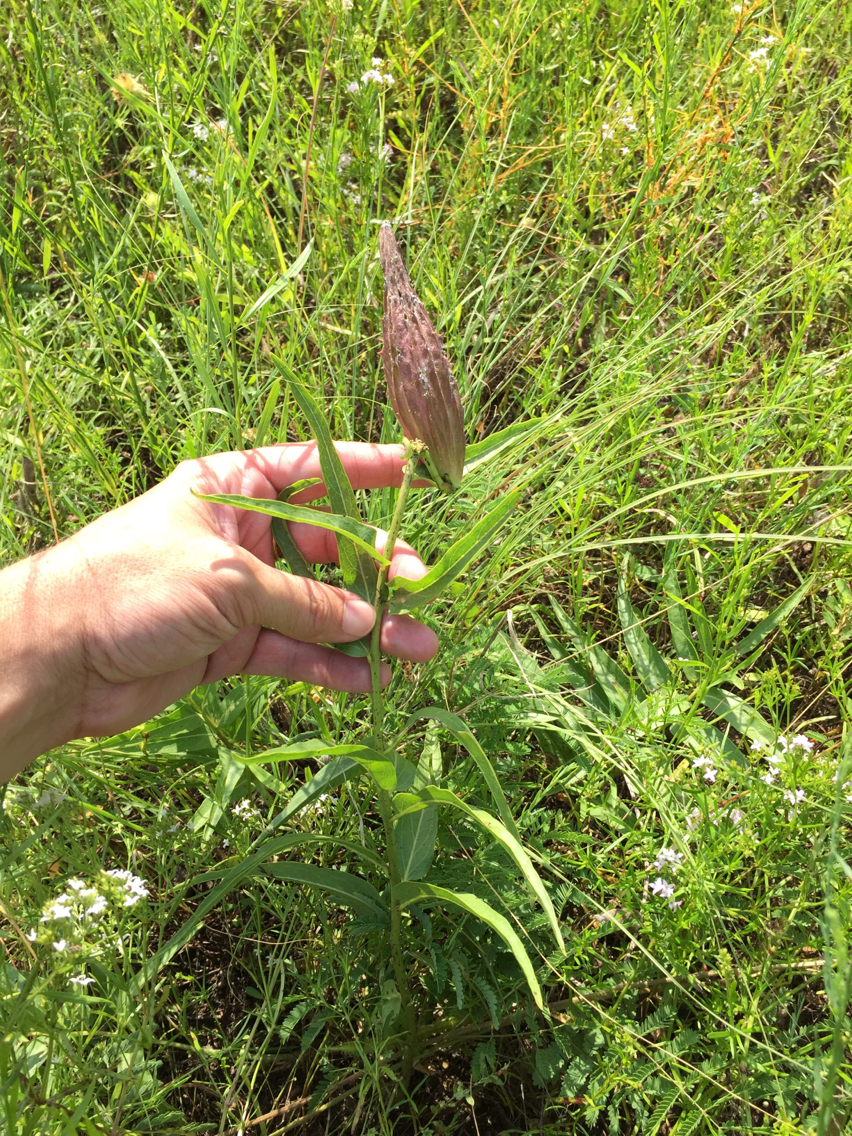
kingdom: Plantae
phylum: Tracheophyta
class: Magnoliopsida
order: Gentianales
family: Apocynaceae
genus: Asclepias
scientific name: Asclepias asperula
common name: Antelope horns
